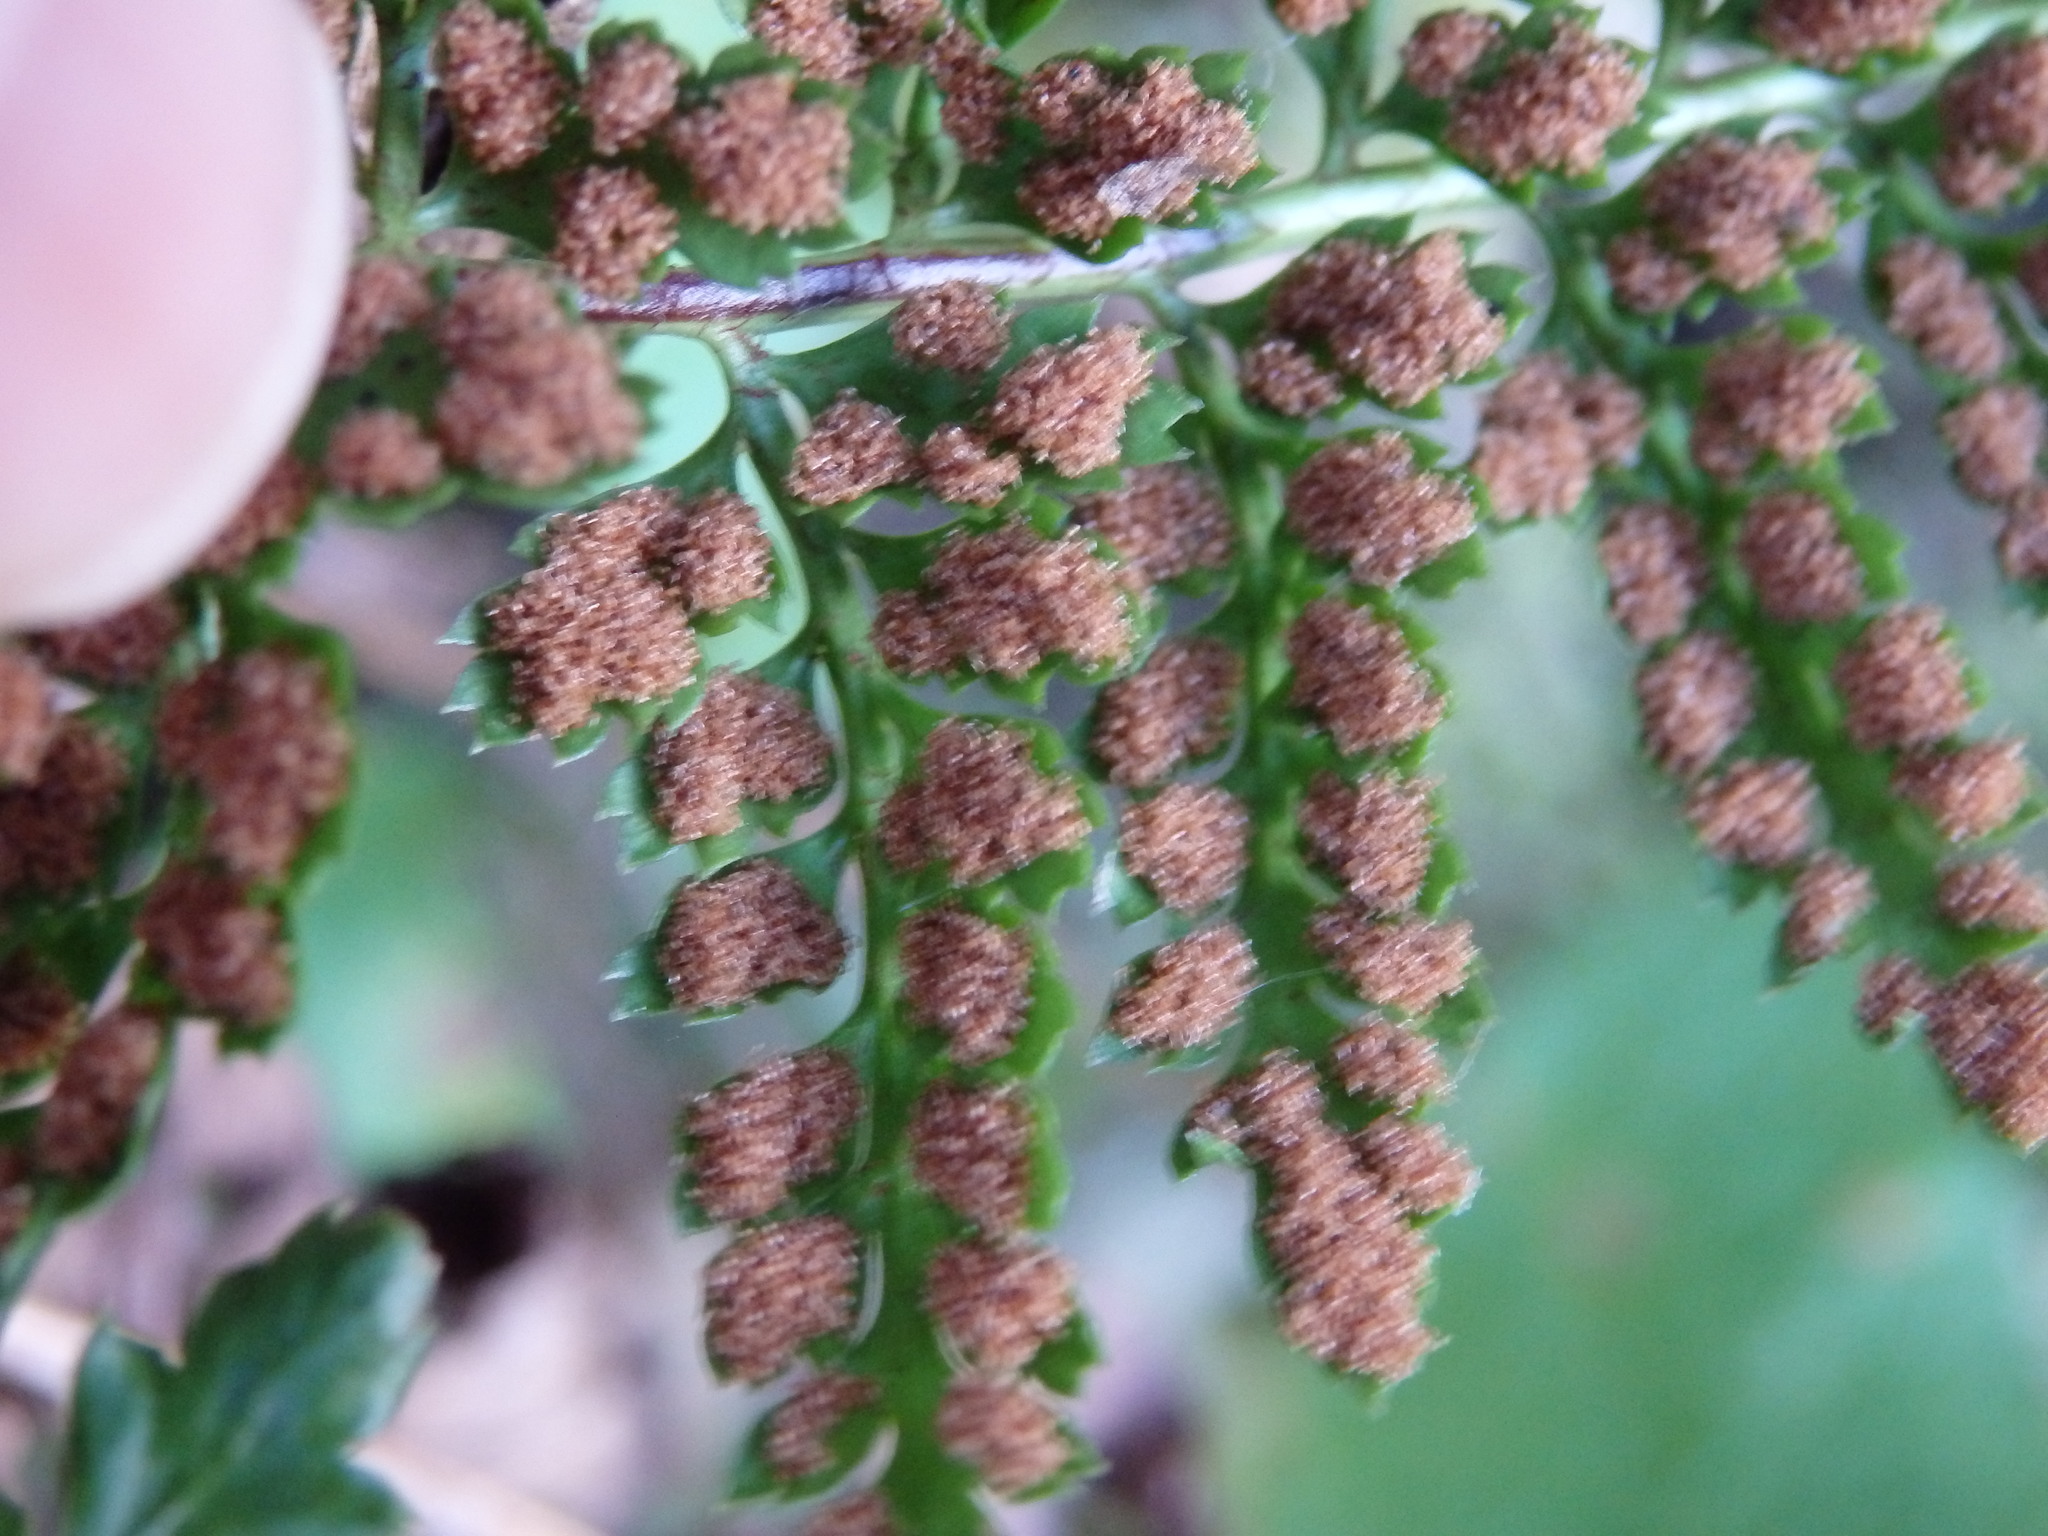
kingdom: Plantae
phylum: Tracheophyta
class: Polypodiopsida
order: Polypodiales
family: Aspleniaceae
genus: Asplenium
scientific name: Asplenium obovatum
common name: Lanceolate spleenwort
